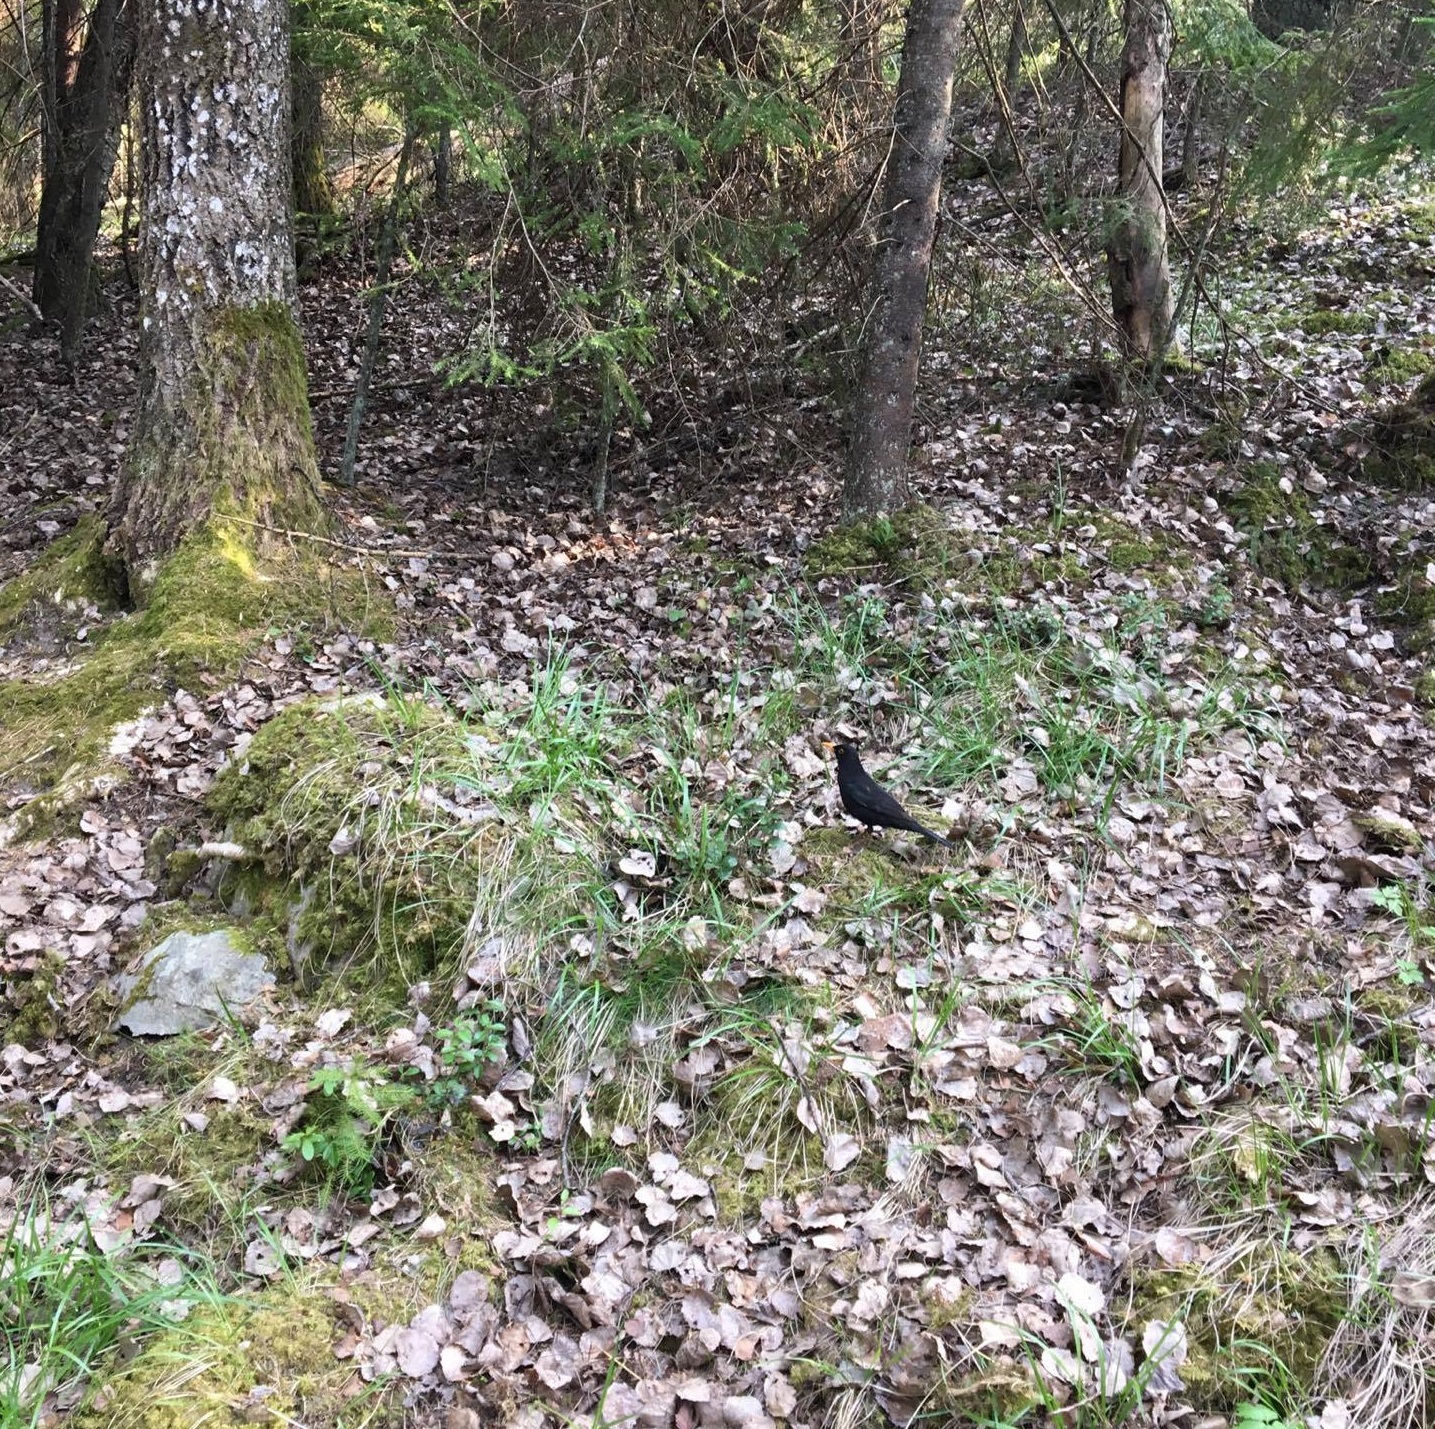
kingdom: Animalia
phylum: Chordata
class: Aves
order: Passeriformes
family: Turdidae
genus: Turdus
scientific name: Turdus merula
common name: Common blackbird
